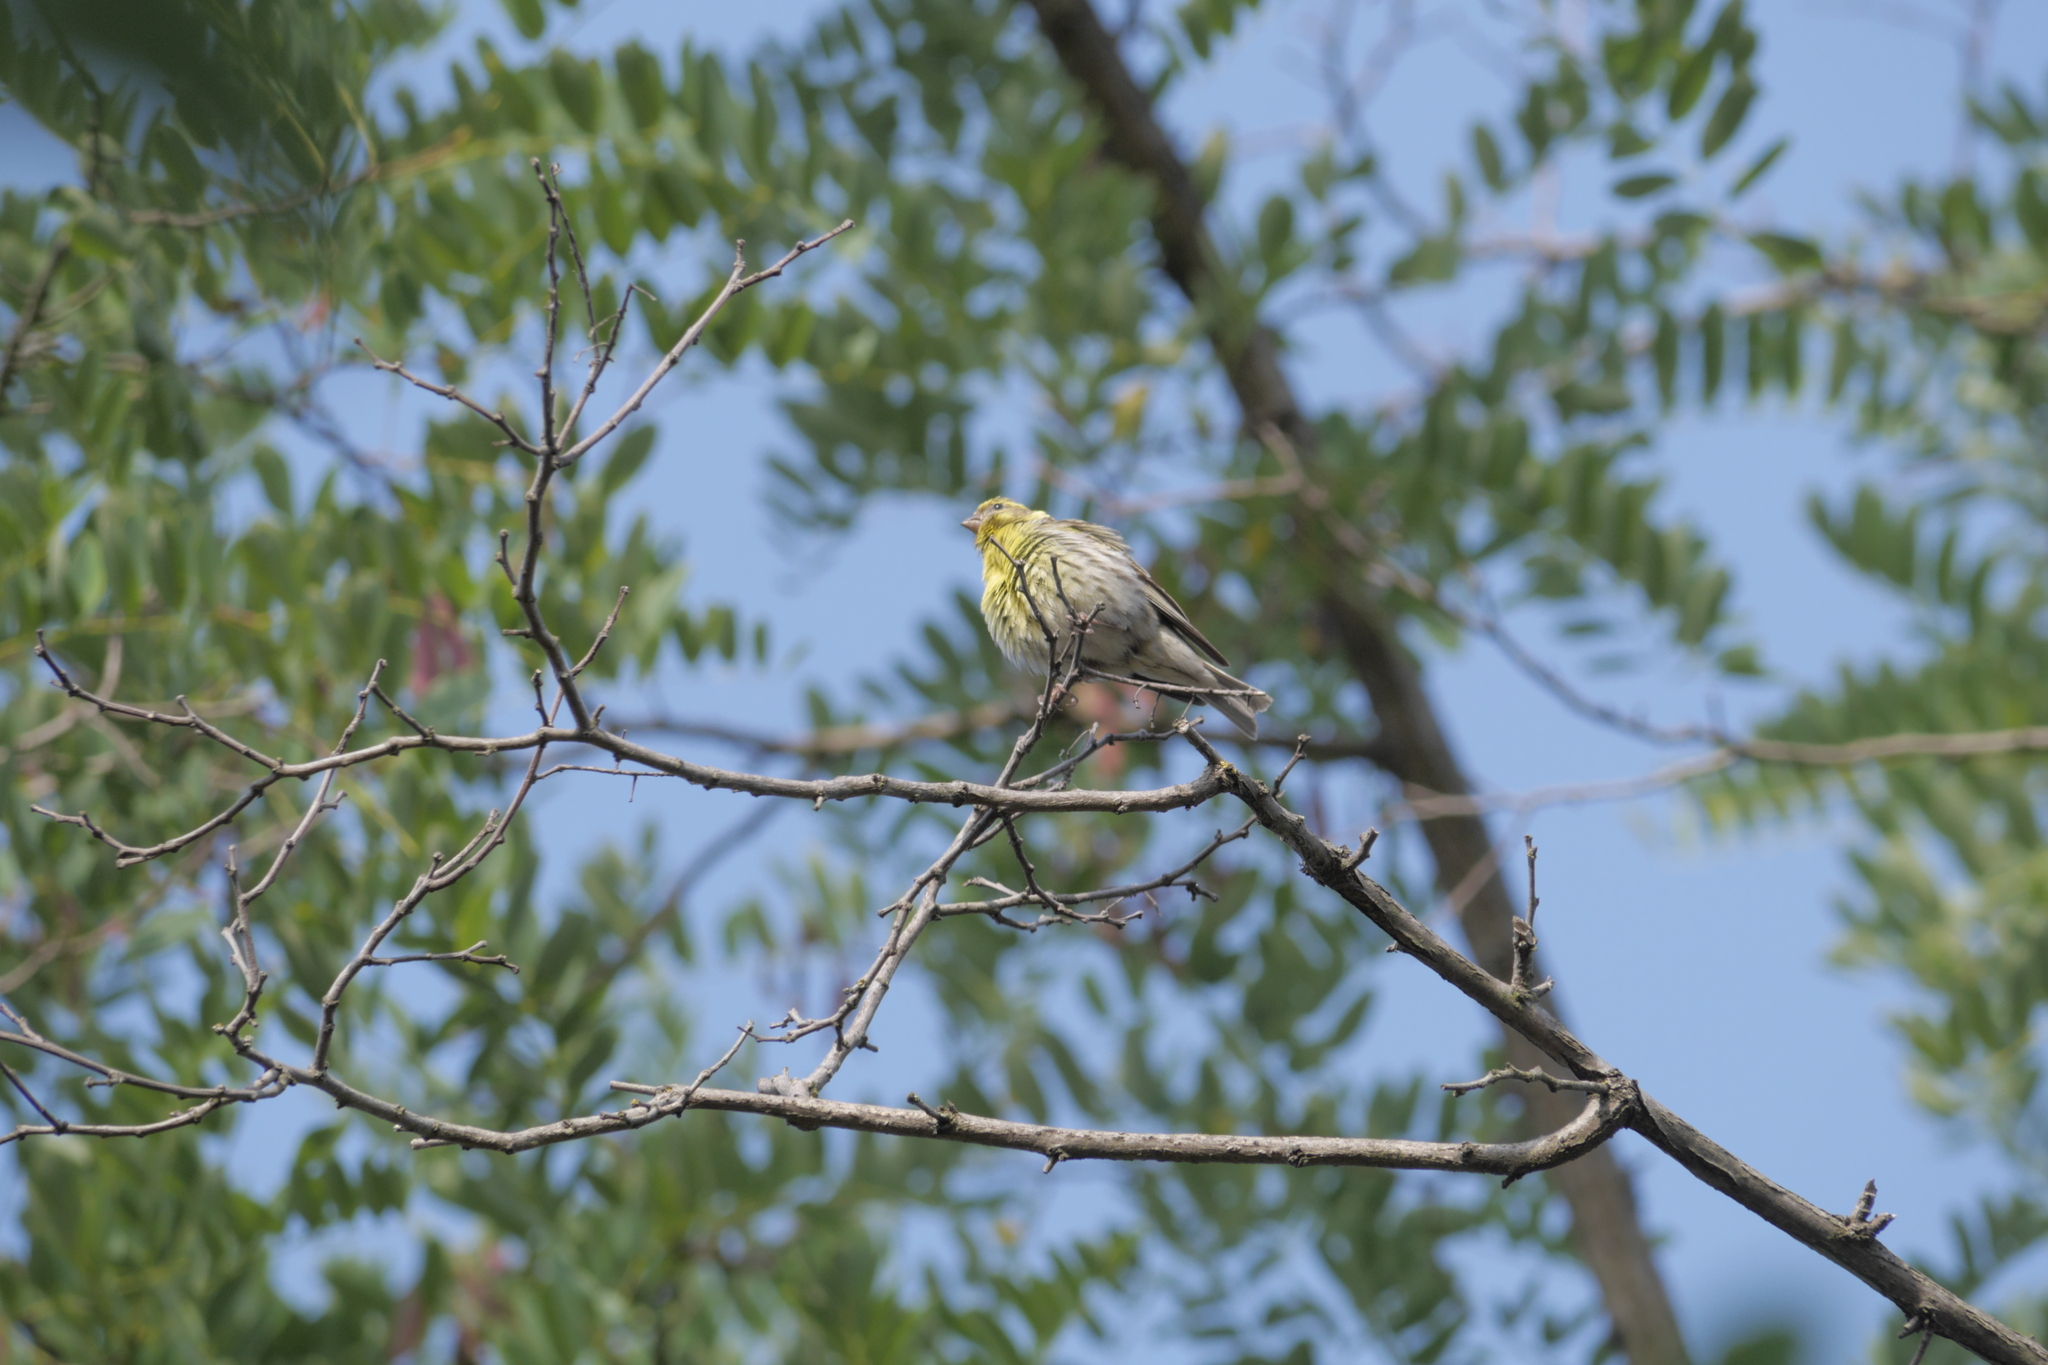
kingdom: Animalia
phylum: Chordata
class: Aves
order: Passeriformes
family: Fringillidae
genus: Serinus
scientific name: Serinus serinus
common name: European serin
